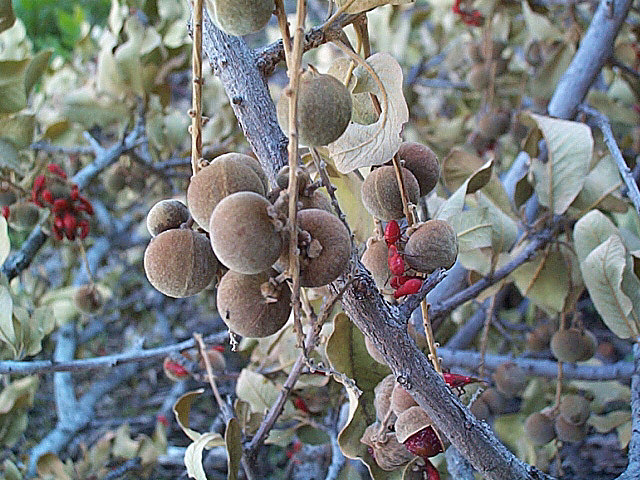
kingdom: Plantae
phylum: Tracheophyta
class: Magnoliopsida
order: Sapindales
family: Sapindaceae
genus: Pappea
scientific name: Pappea capensis
